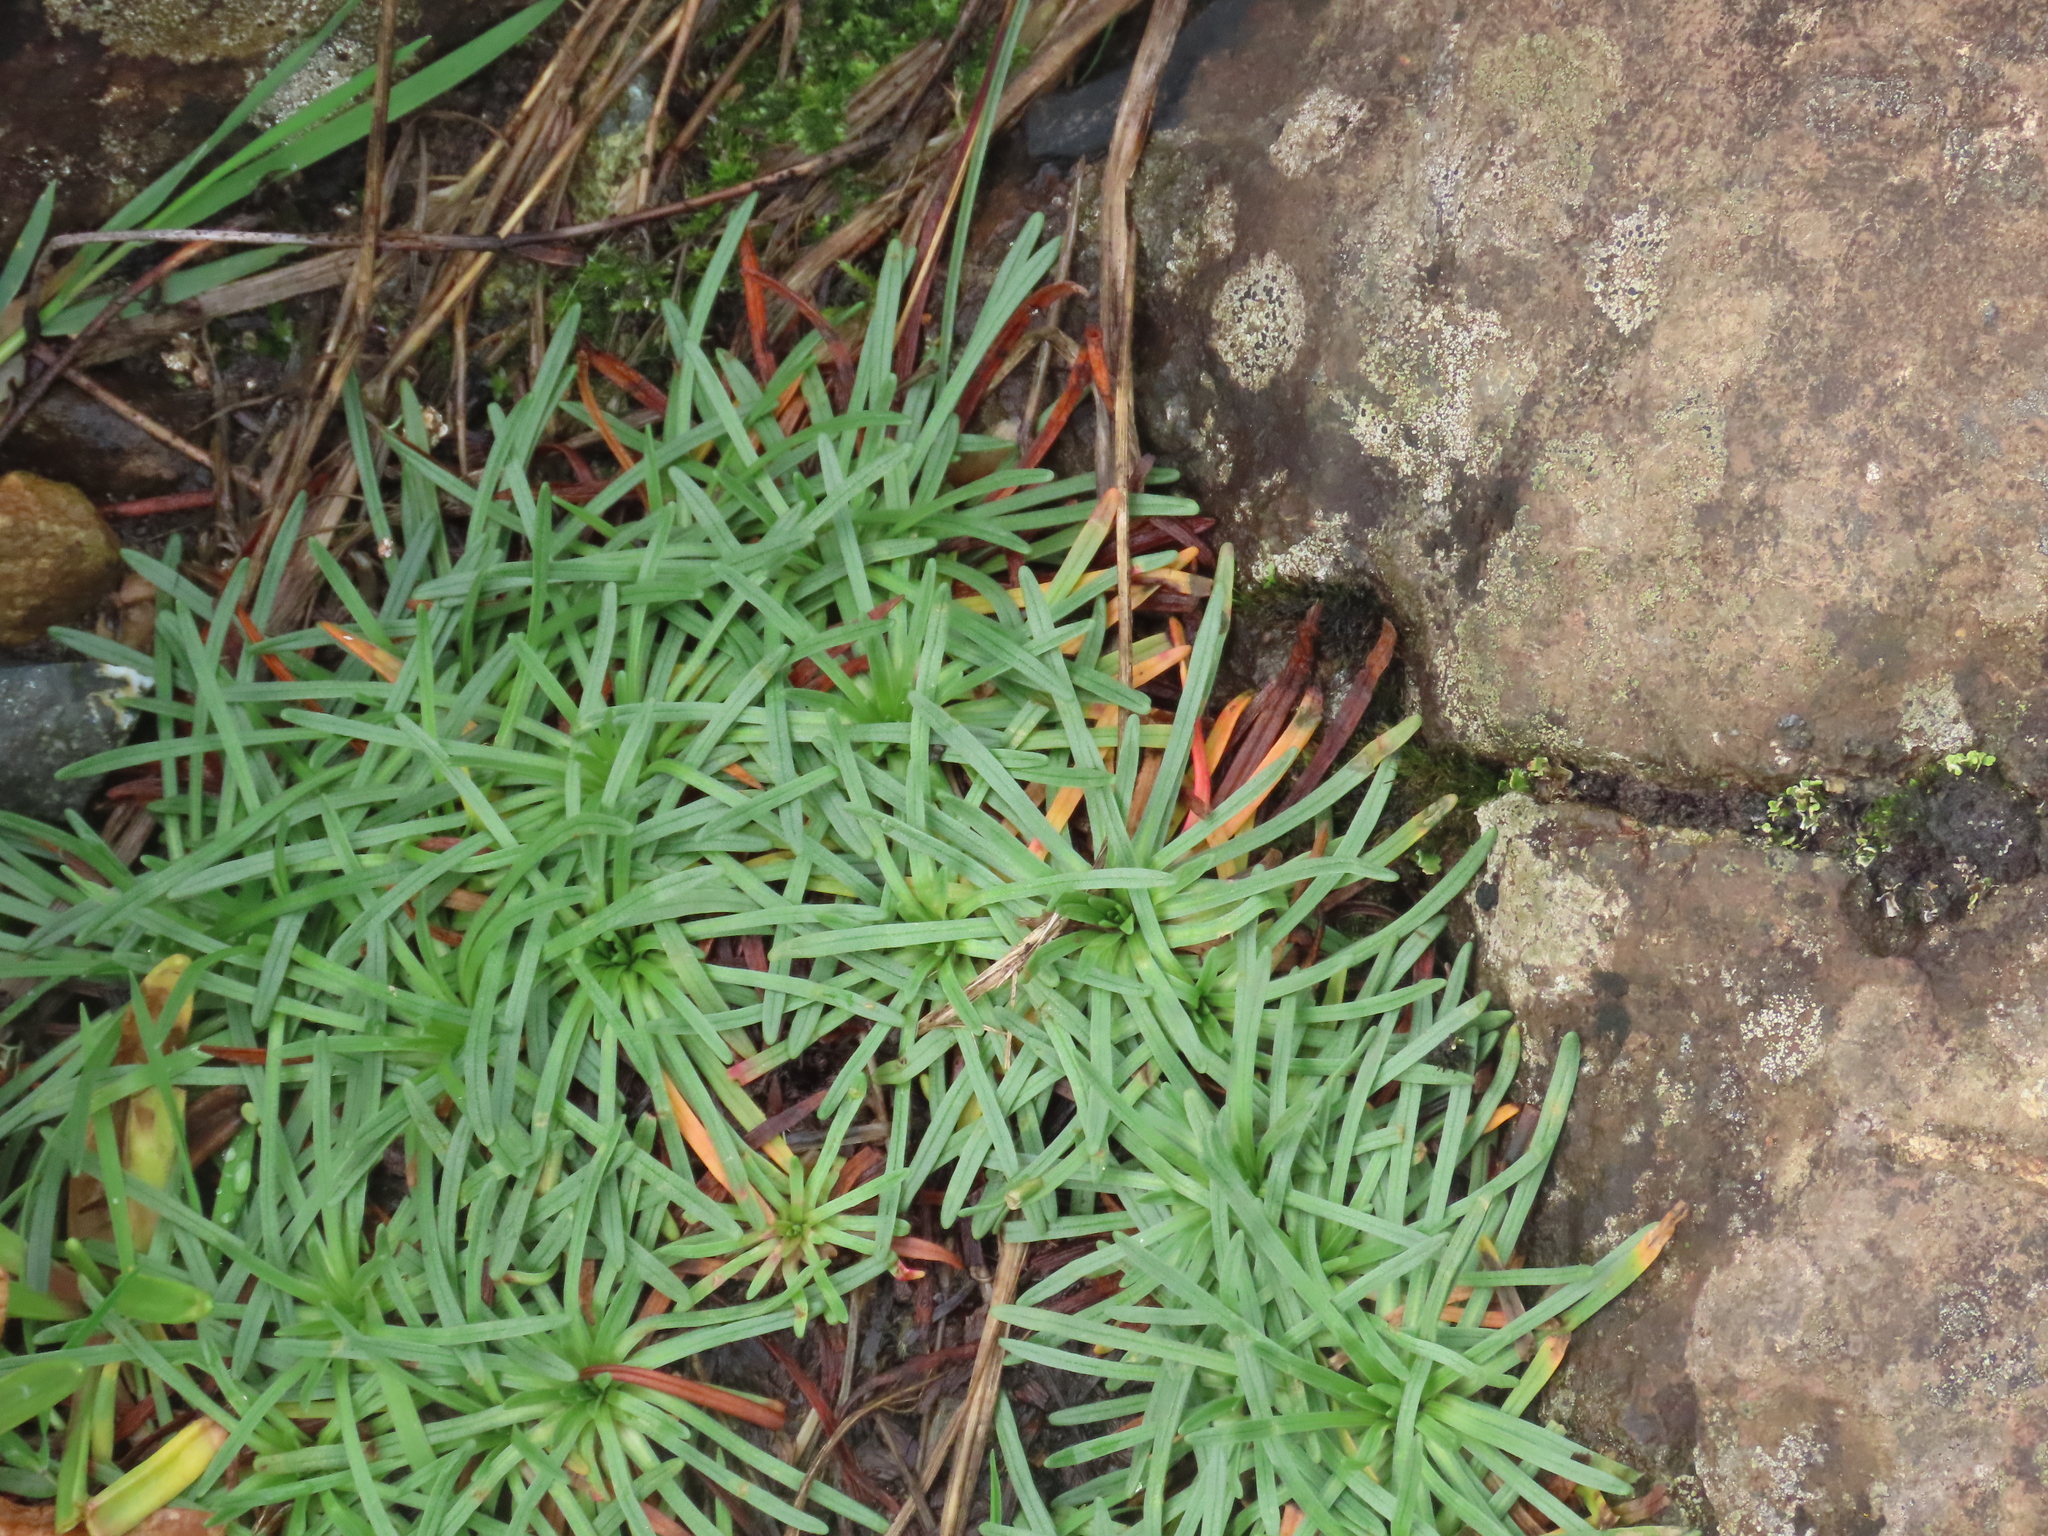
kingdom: Plantae
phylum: Tracheophyta
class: Magnoliopsida
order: Caryophyllales
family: Plumbaginaceae
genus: Armeria
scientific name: Armeria maritima
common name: Thrift
